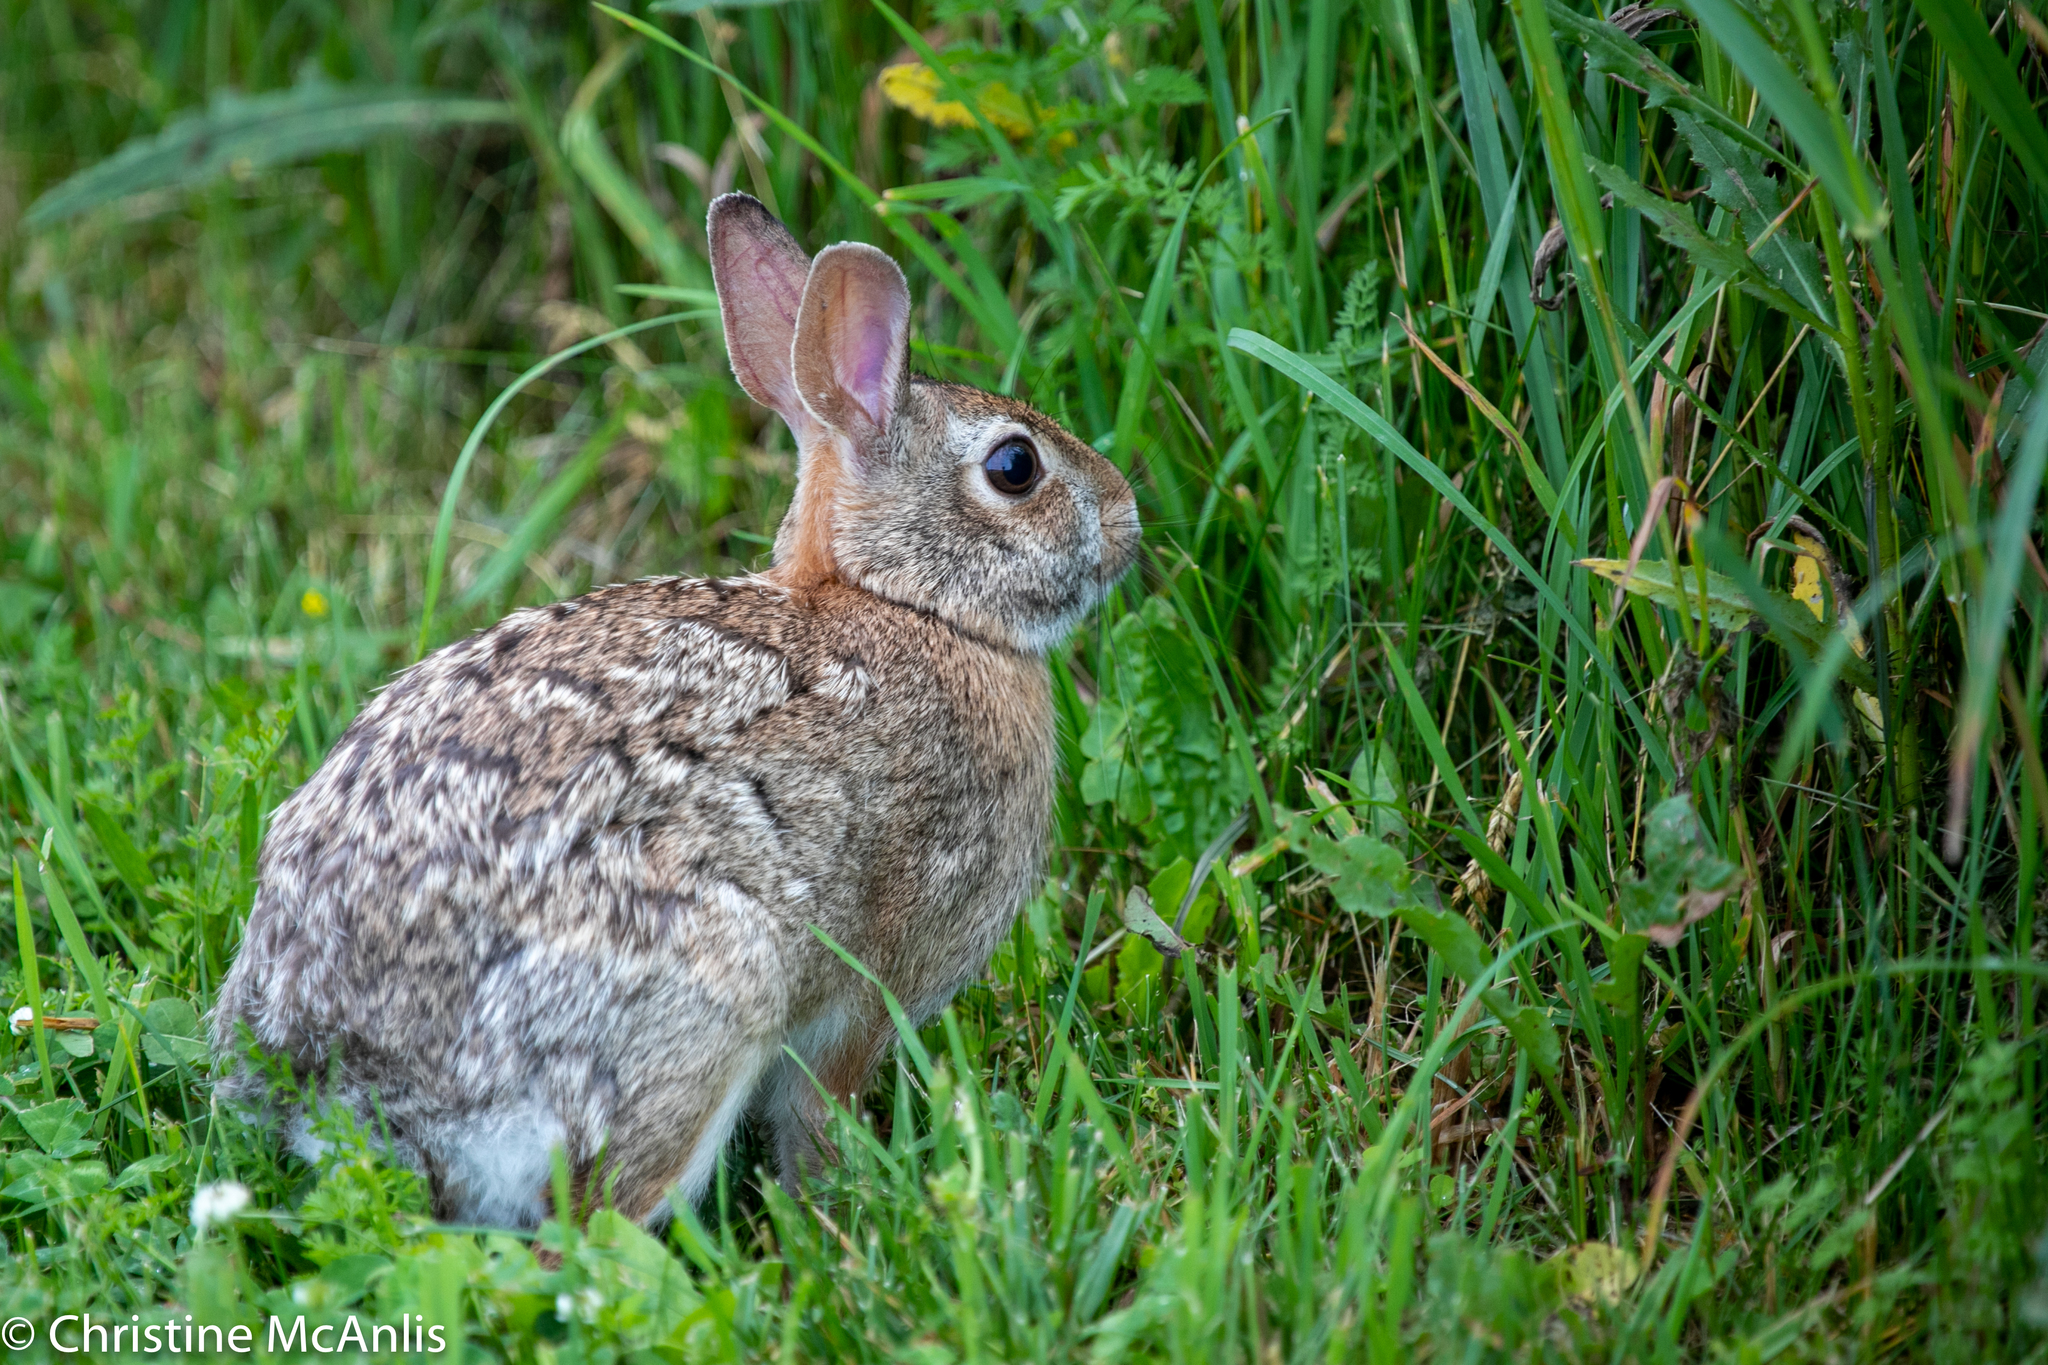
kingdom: Animalia
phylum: Chordata
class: Mammalia
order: Lagomorpha
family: Leporidae
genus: Sylvilagus
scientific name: Sylvilagus floridanus
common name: Eastern cottontail
